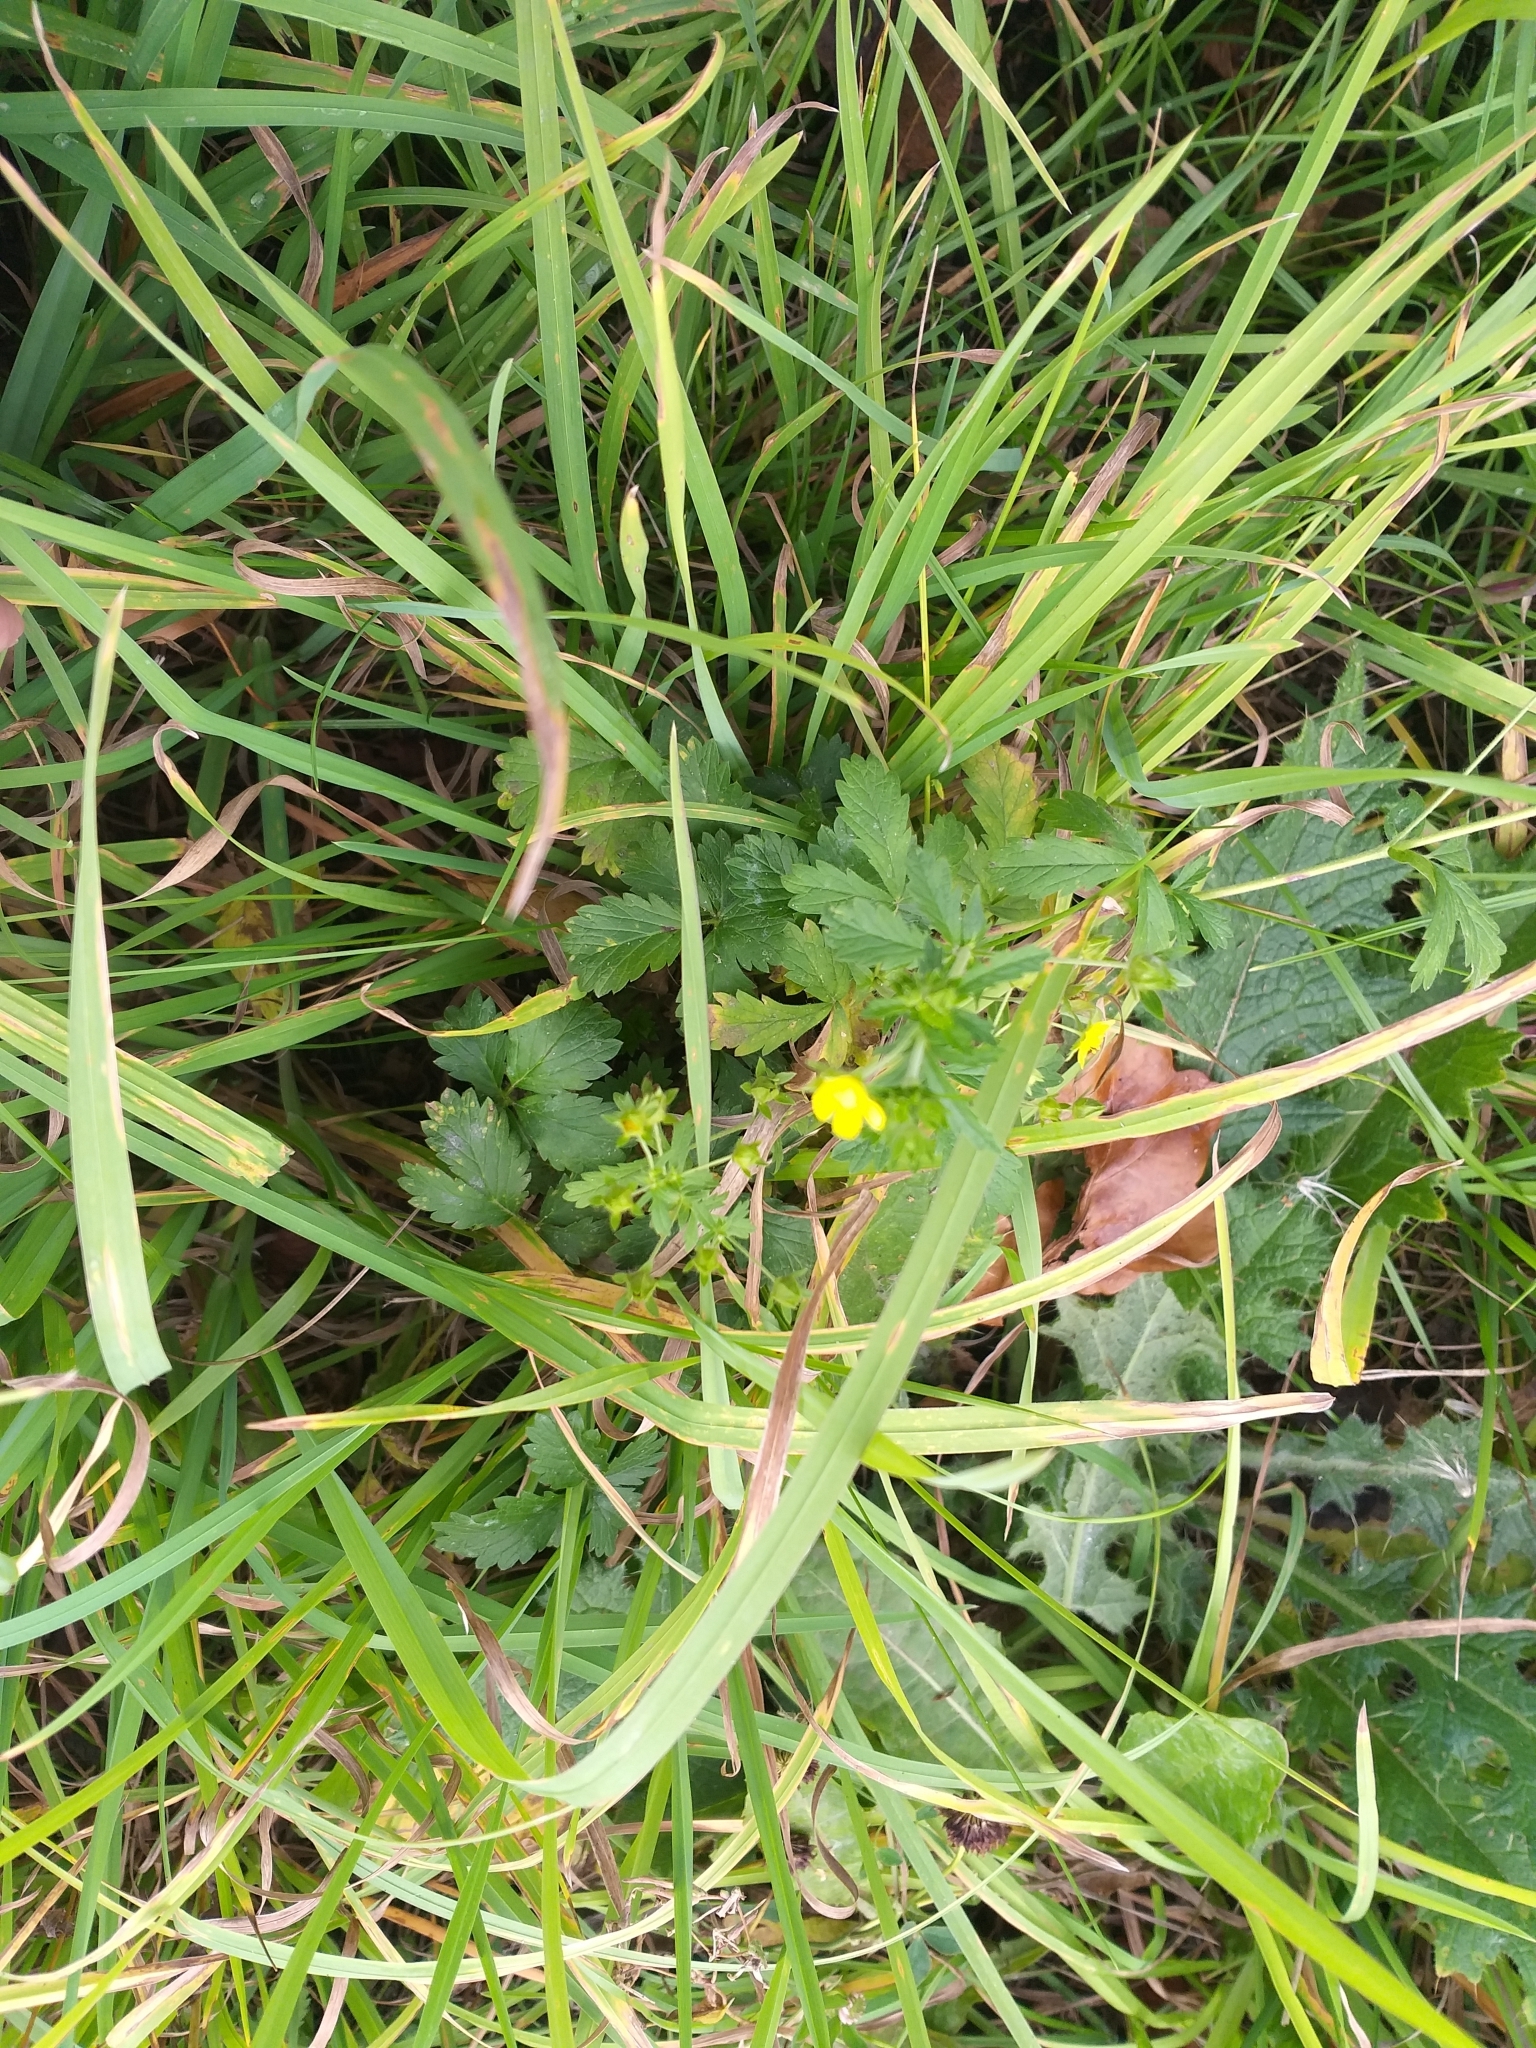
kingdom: Plantae
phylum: Tracheophyta
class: Magnoliopsida
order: Rosales
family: Rosaceae
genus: Potentilla
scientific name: Potentilla intermedia
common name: Downy cinquefoil
